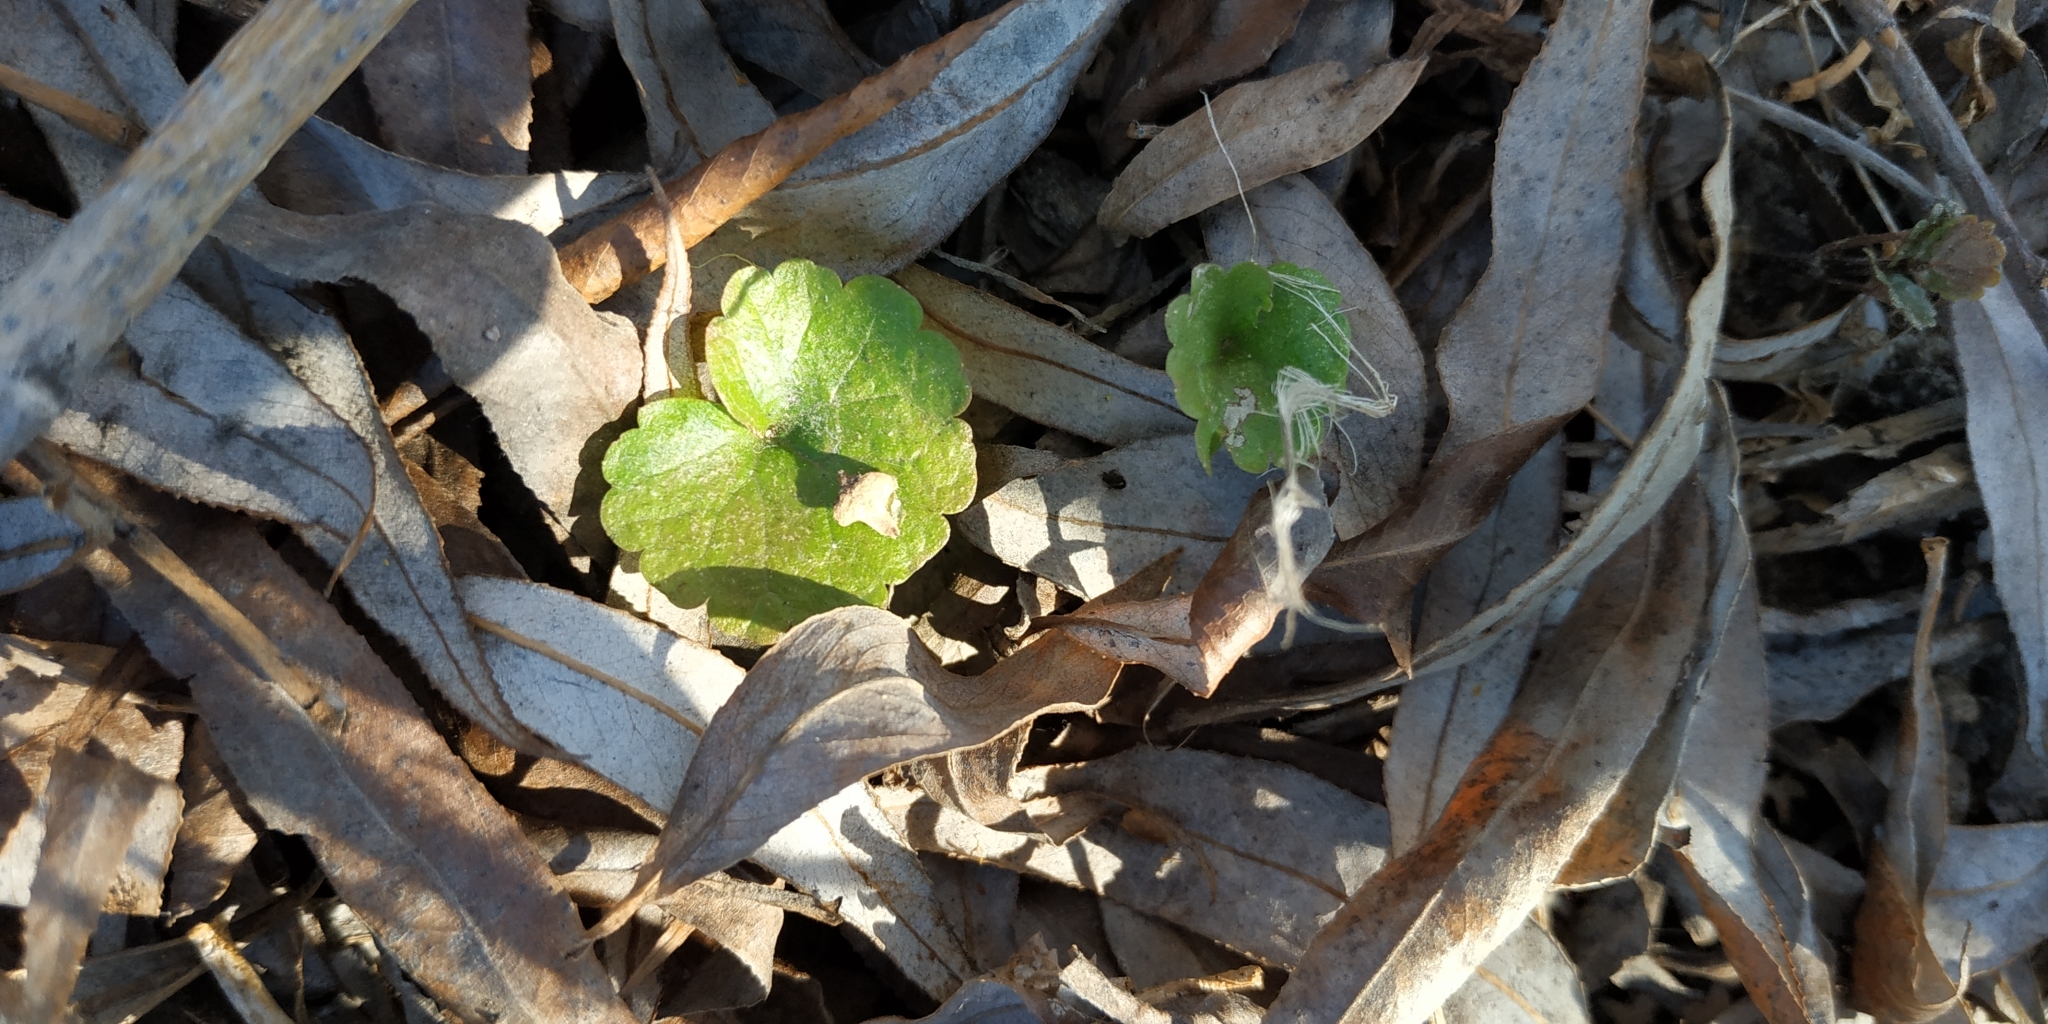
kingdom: Plantae
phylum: Tracheophyta
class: Magnoliopsida
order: Lamiales
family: Lamiaceae
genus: Glechoma
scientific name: Glechoma hederacea
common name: Ground ivy
